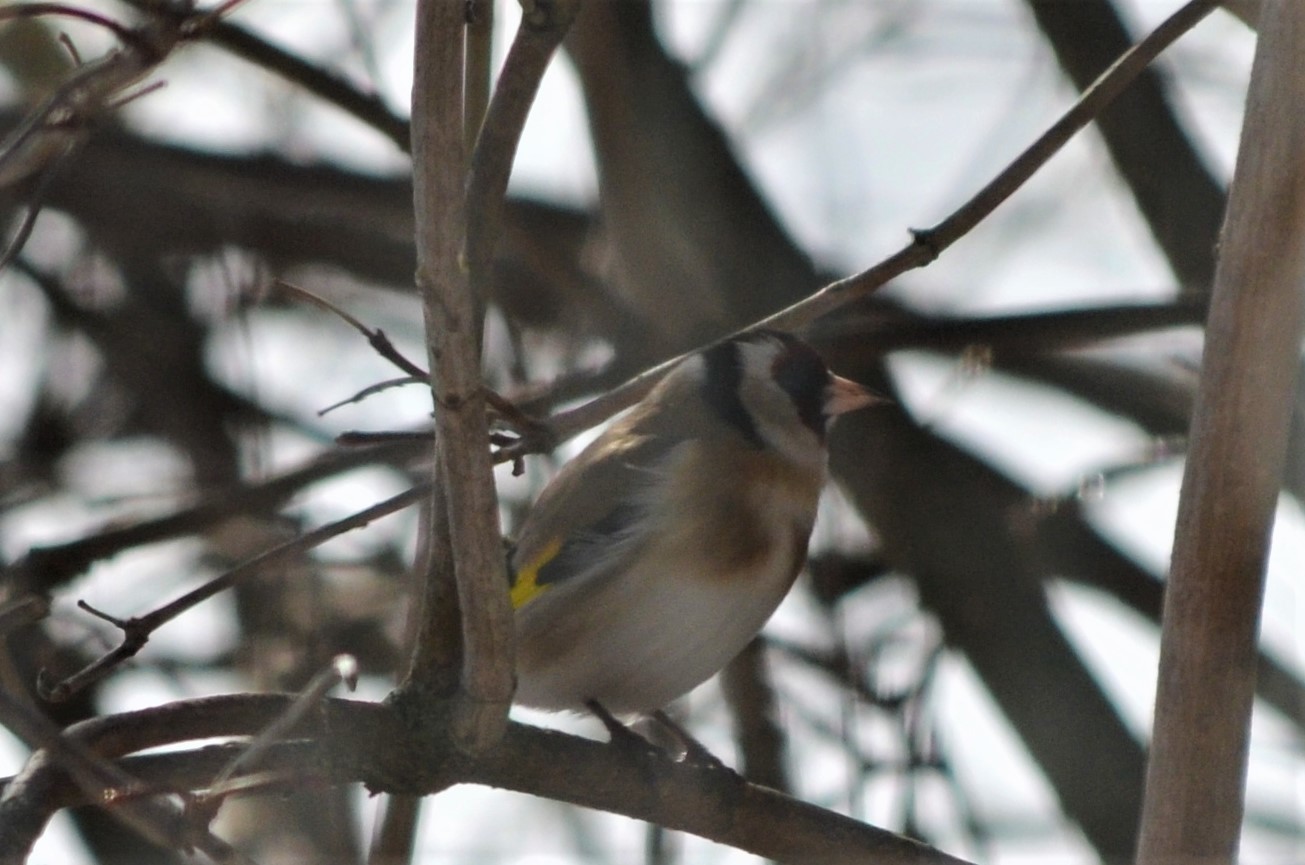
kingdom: Animalia
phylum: Chordata
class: Aves
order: Passeriformes
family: Fringillidae
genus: Carduelis
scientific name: Carduelis carduelis
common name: European goldfinch
